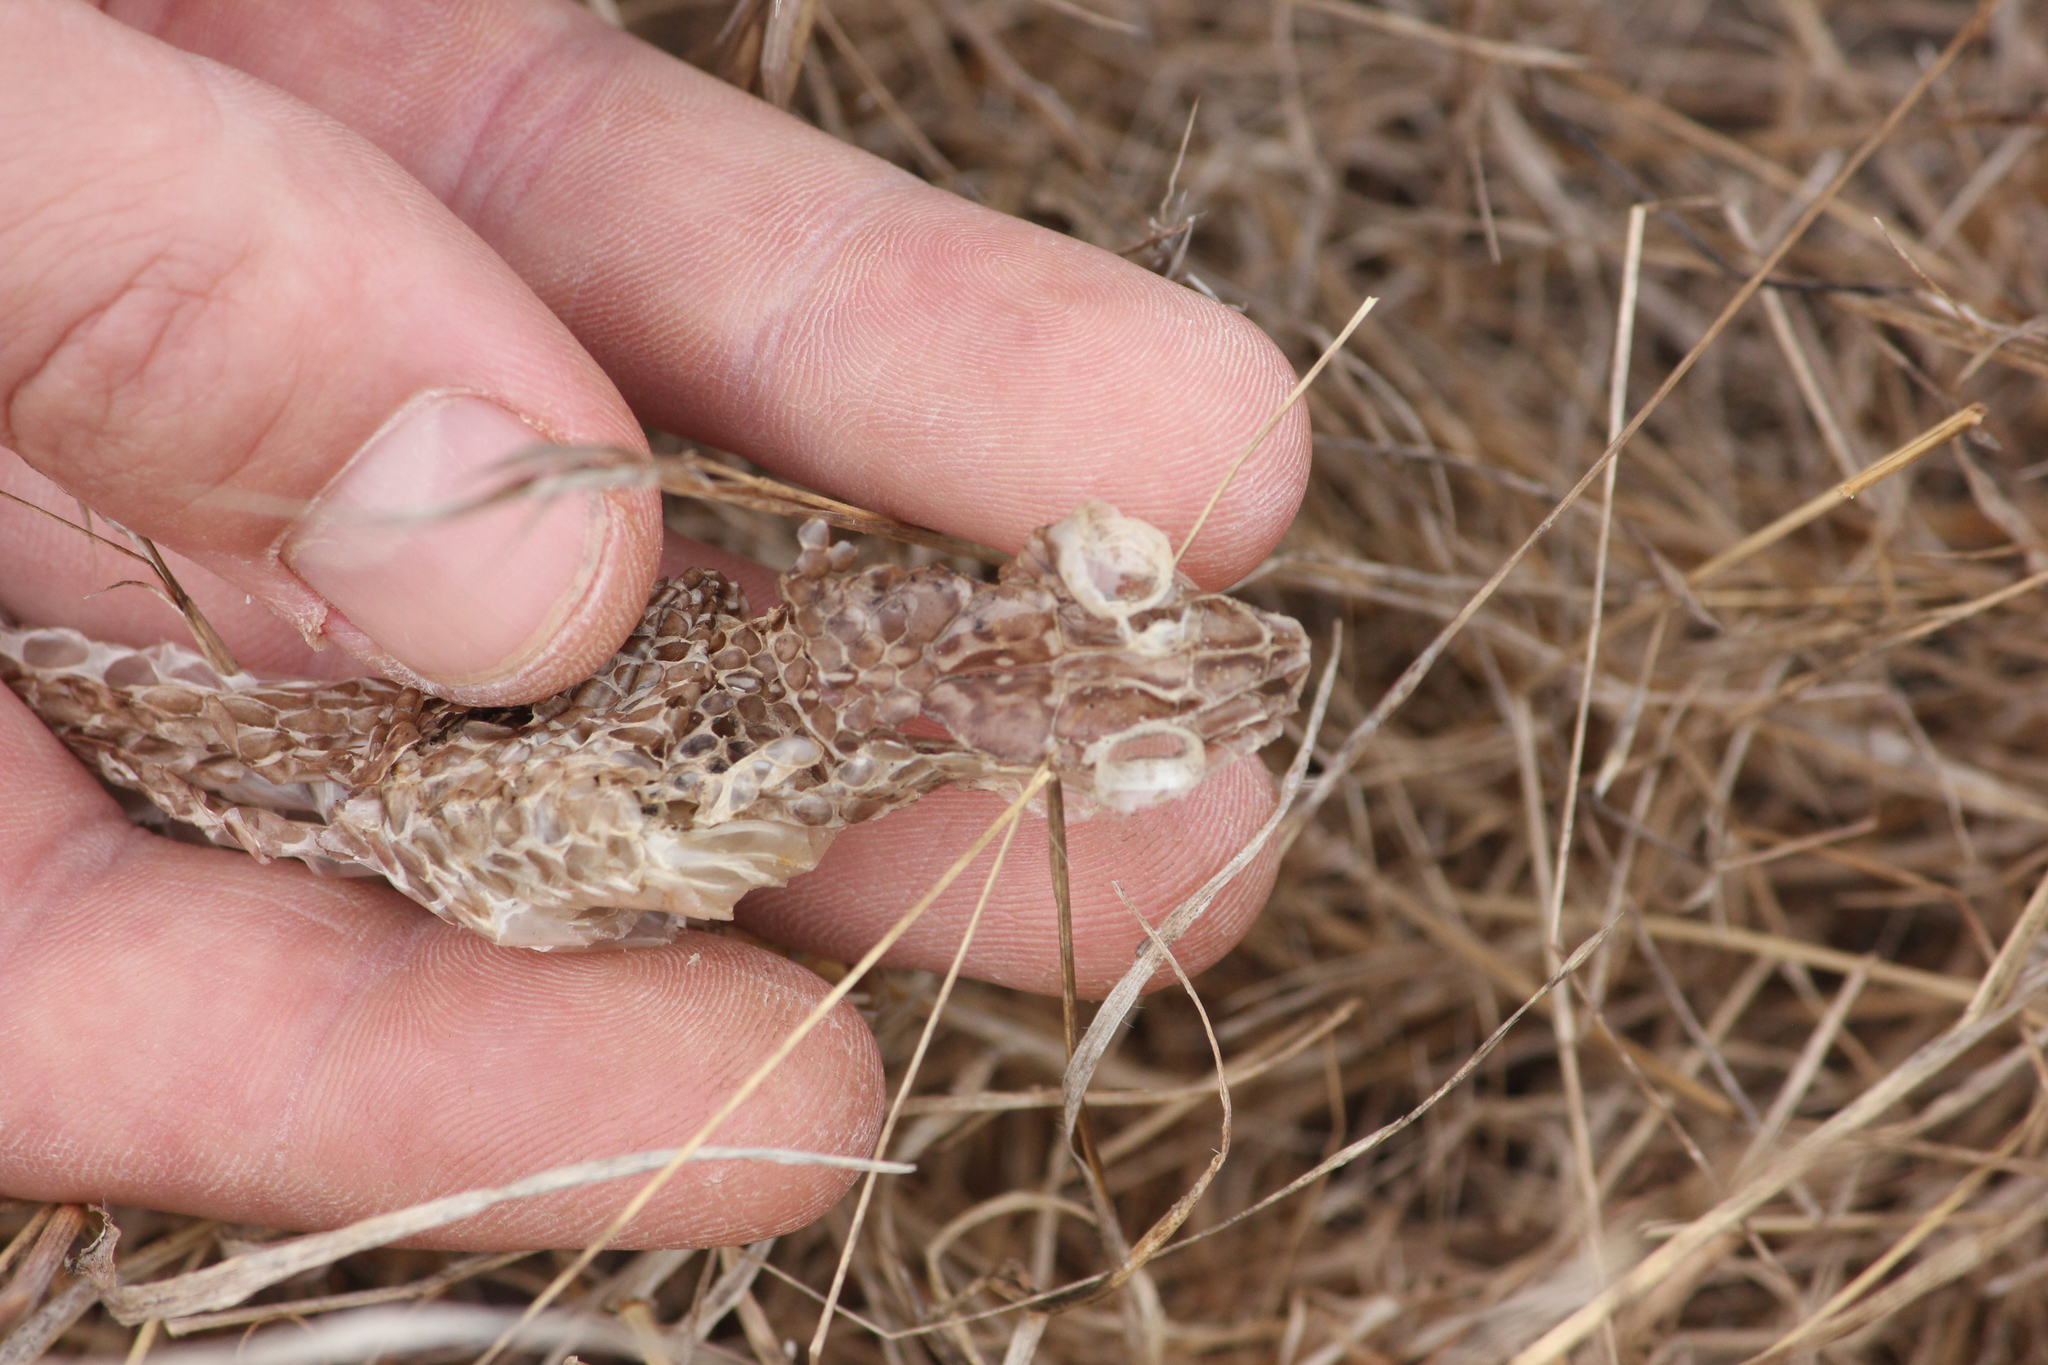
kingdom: Animalia
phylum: Chordata
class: Squamata
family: Psammophiidae
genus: Psammophis
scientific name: Psammophis leightoni
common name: Cape sand snake
